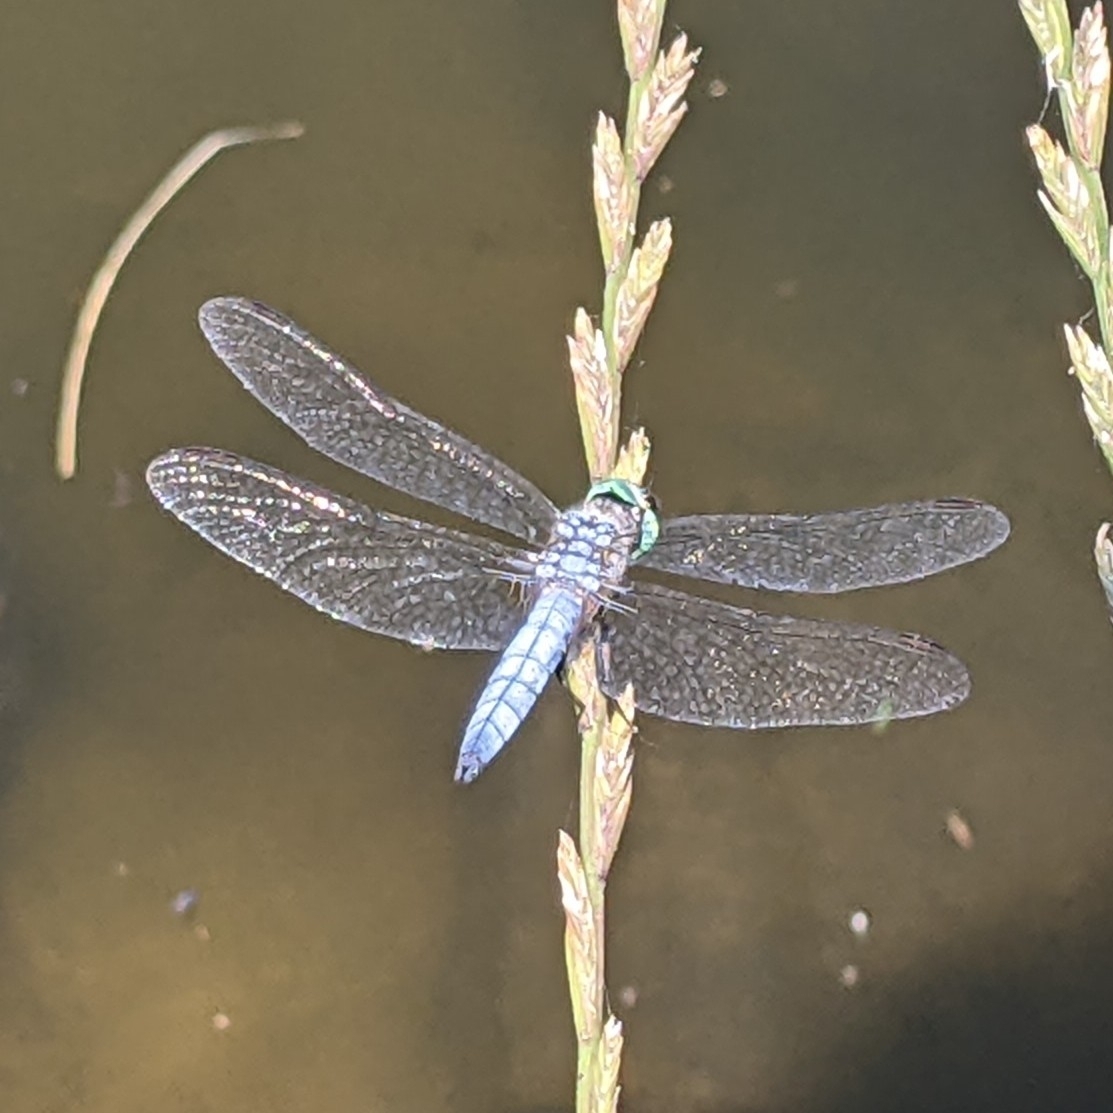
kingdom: Animalia
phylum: Arthropoda
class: Insecta
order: Odonata
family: Libellulidae
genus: Pachydiplax
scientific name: Pachydiplax longipennis
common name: Blue dasher
